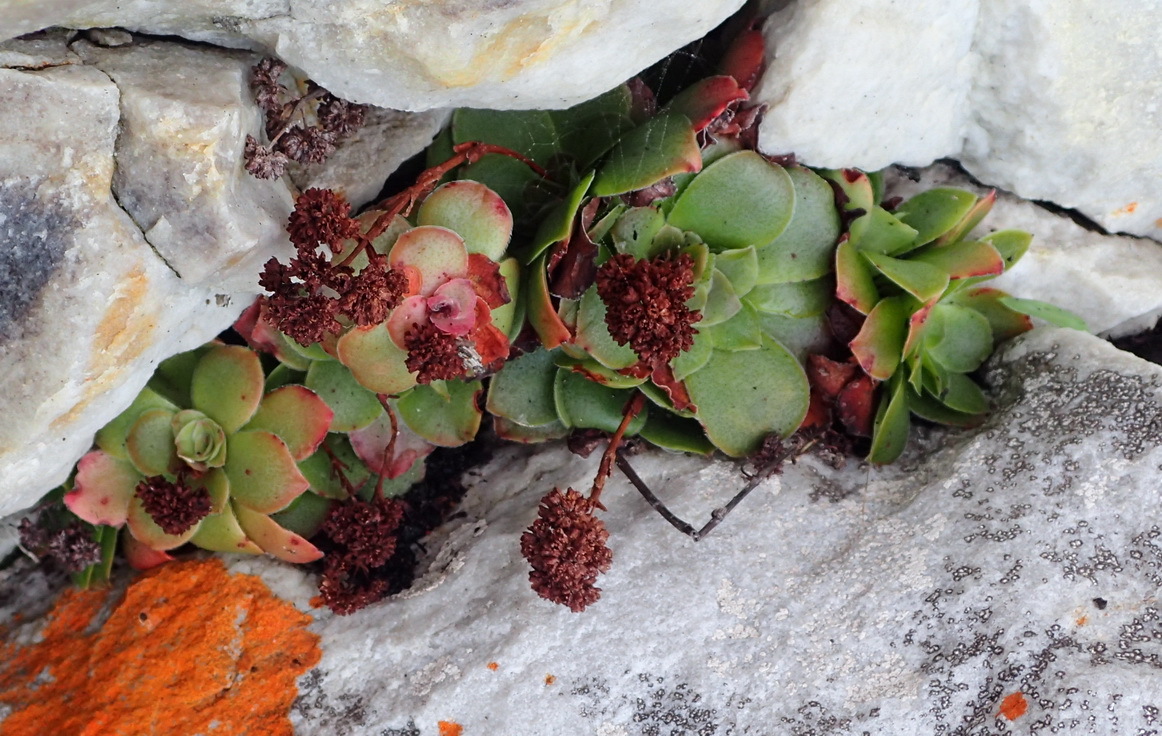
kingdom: Plantae
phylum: Tracheophyta
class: Magnoliopsida
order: Saxifragales
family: Crassulaceae
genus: Crassula
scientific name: Crassula orbicularis
